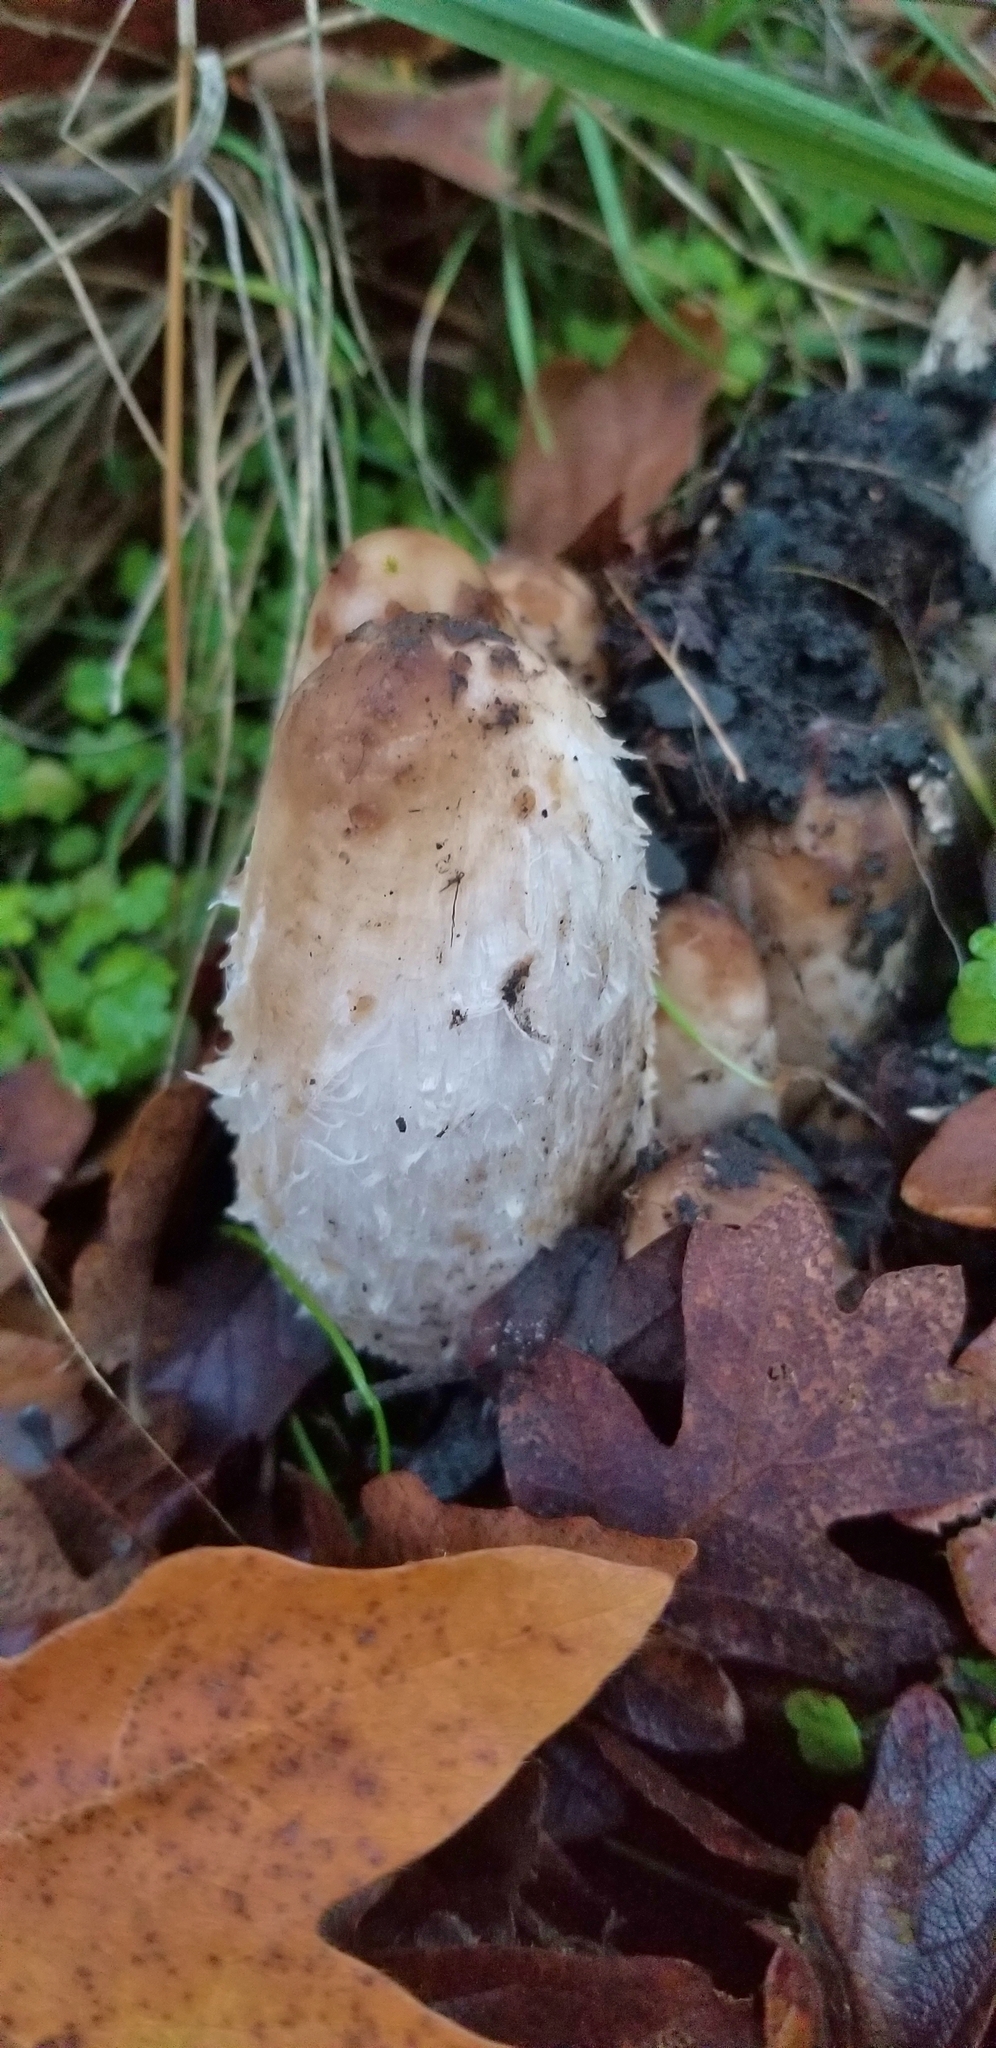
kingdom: Fungi
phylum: Basidiomycota
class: Agaricomycetes
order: Agaricales
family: Agaricaceae
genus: Coprinus
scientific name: Coprinus comatus
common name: Lawyer's wig
